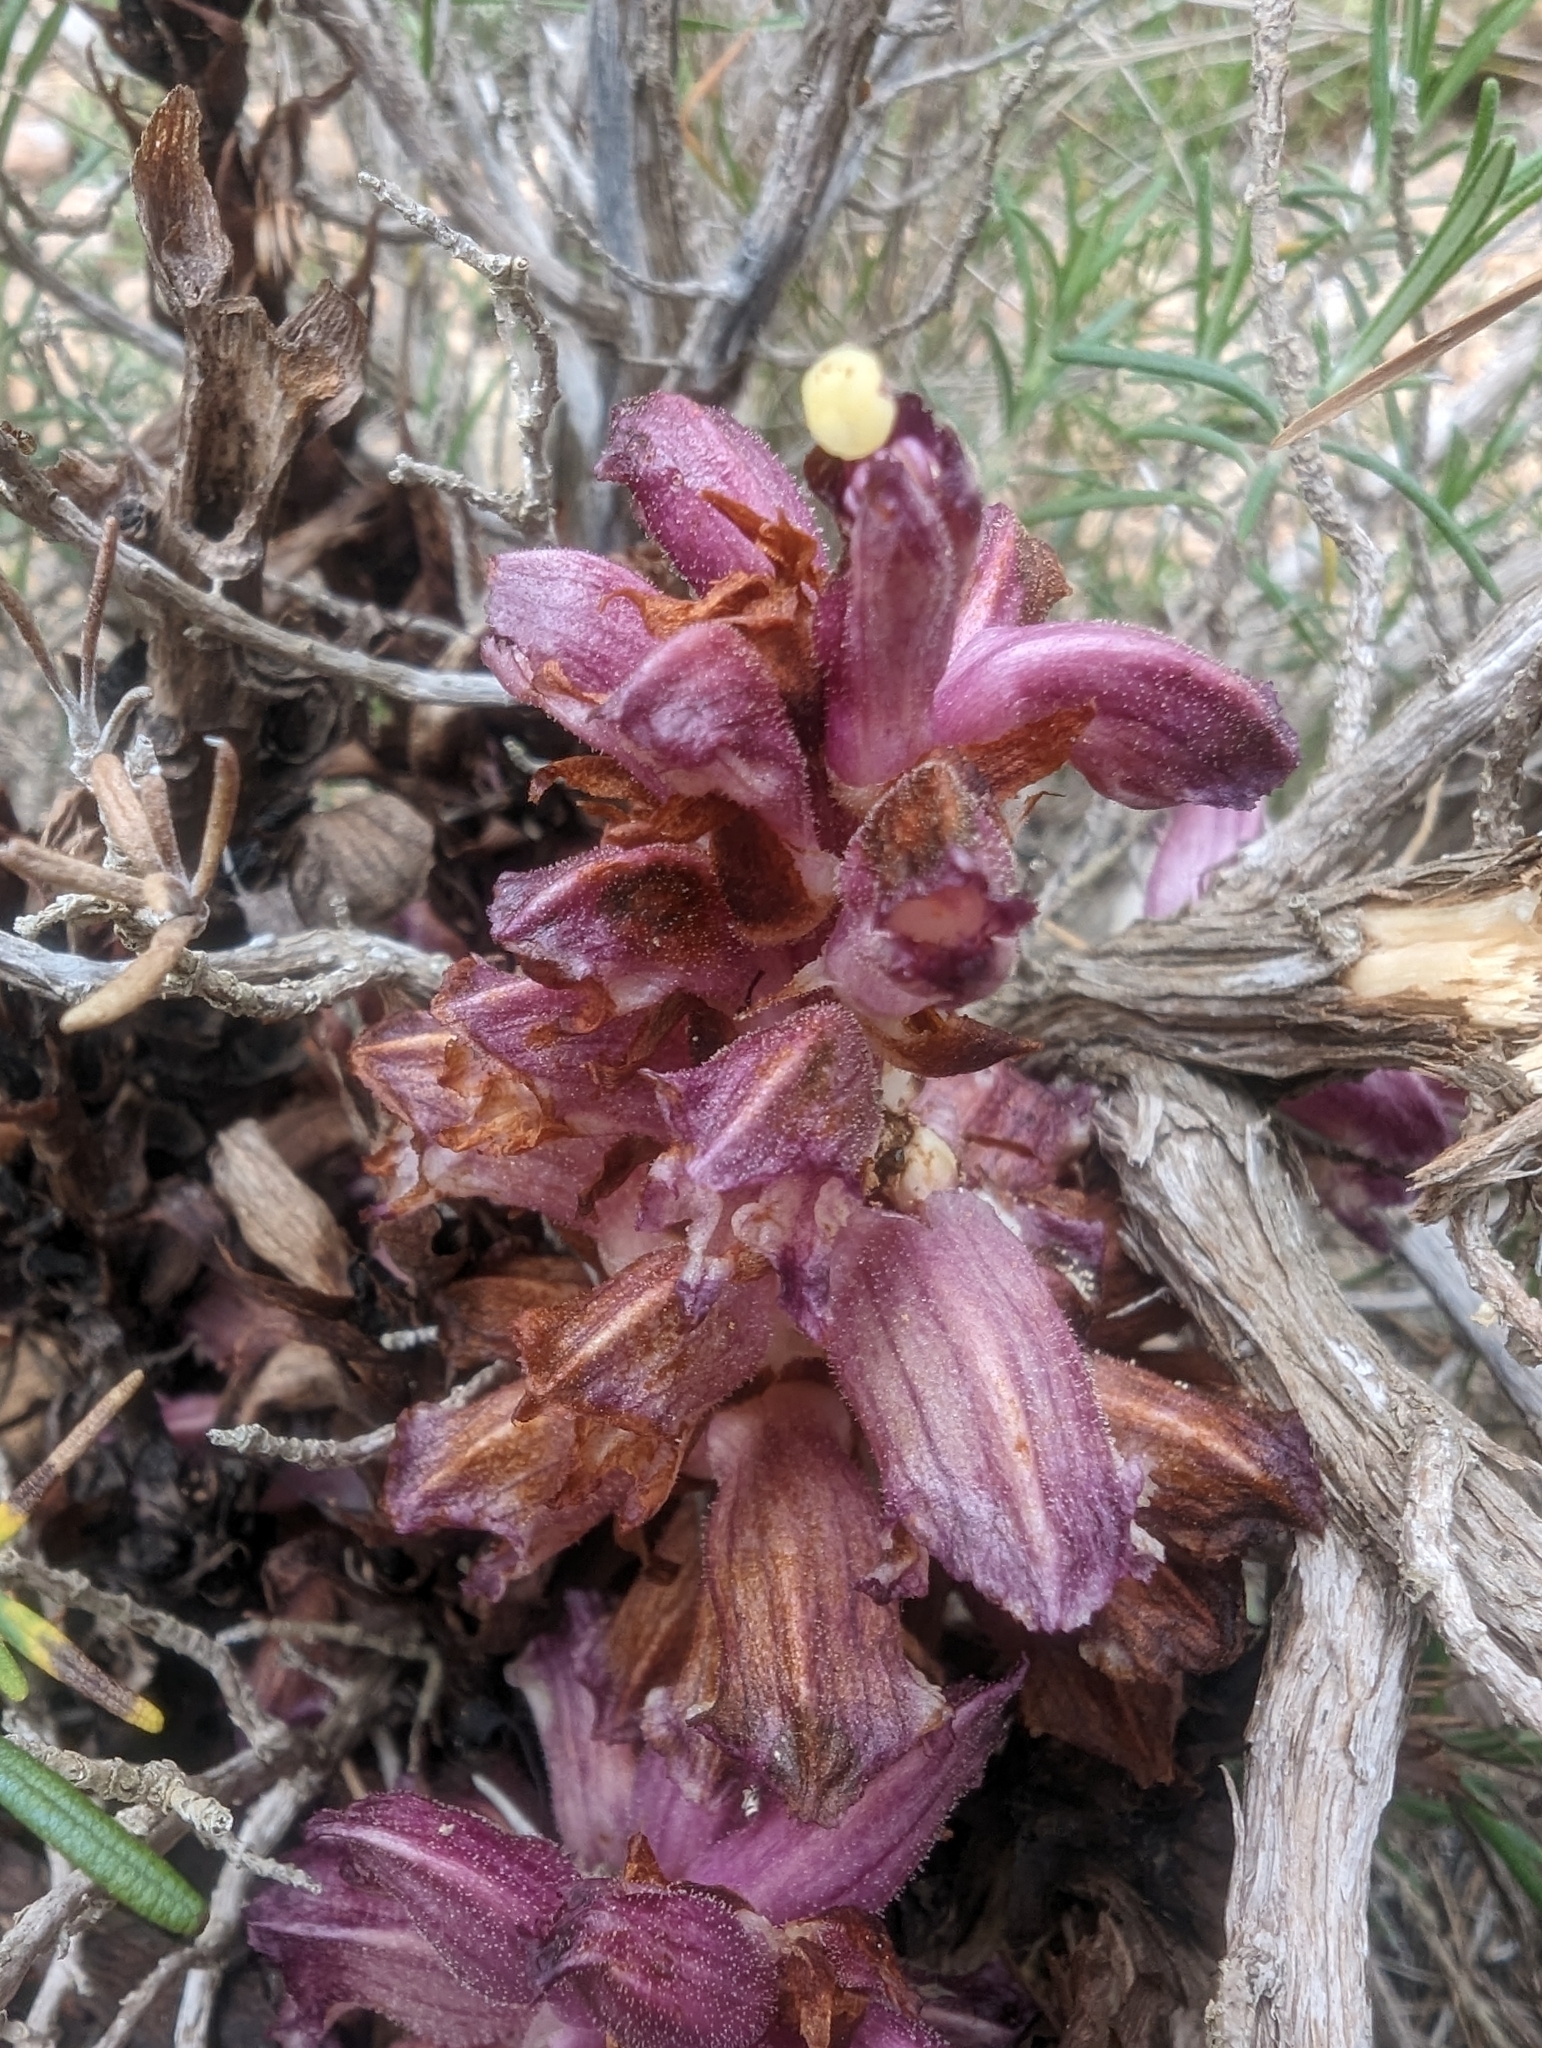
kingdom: Plantae
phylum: Tracheophyta
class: Magnoliopsida
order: Lamiales
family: Orobanchaceae
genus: Boulardia
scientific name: Boulardia latisquama
